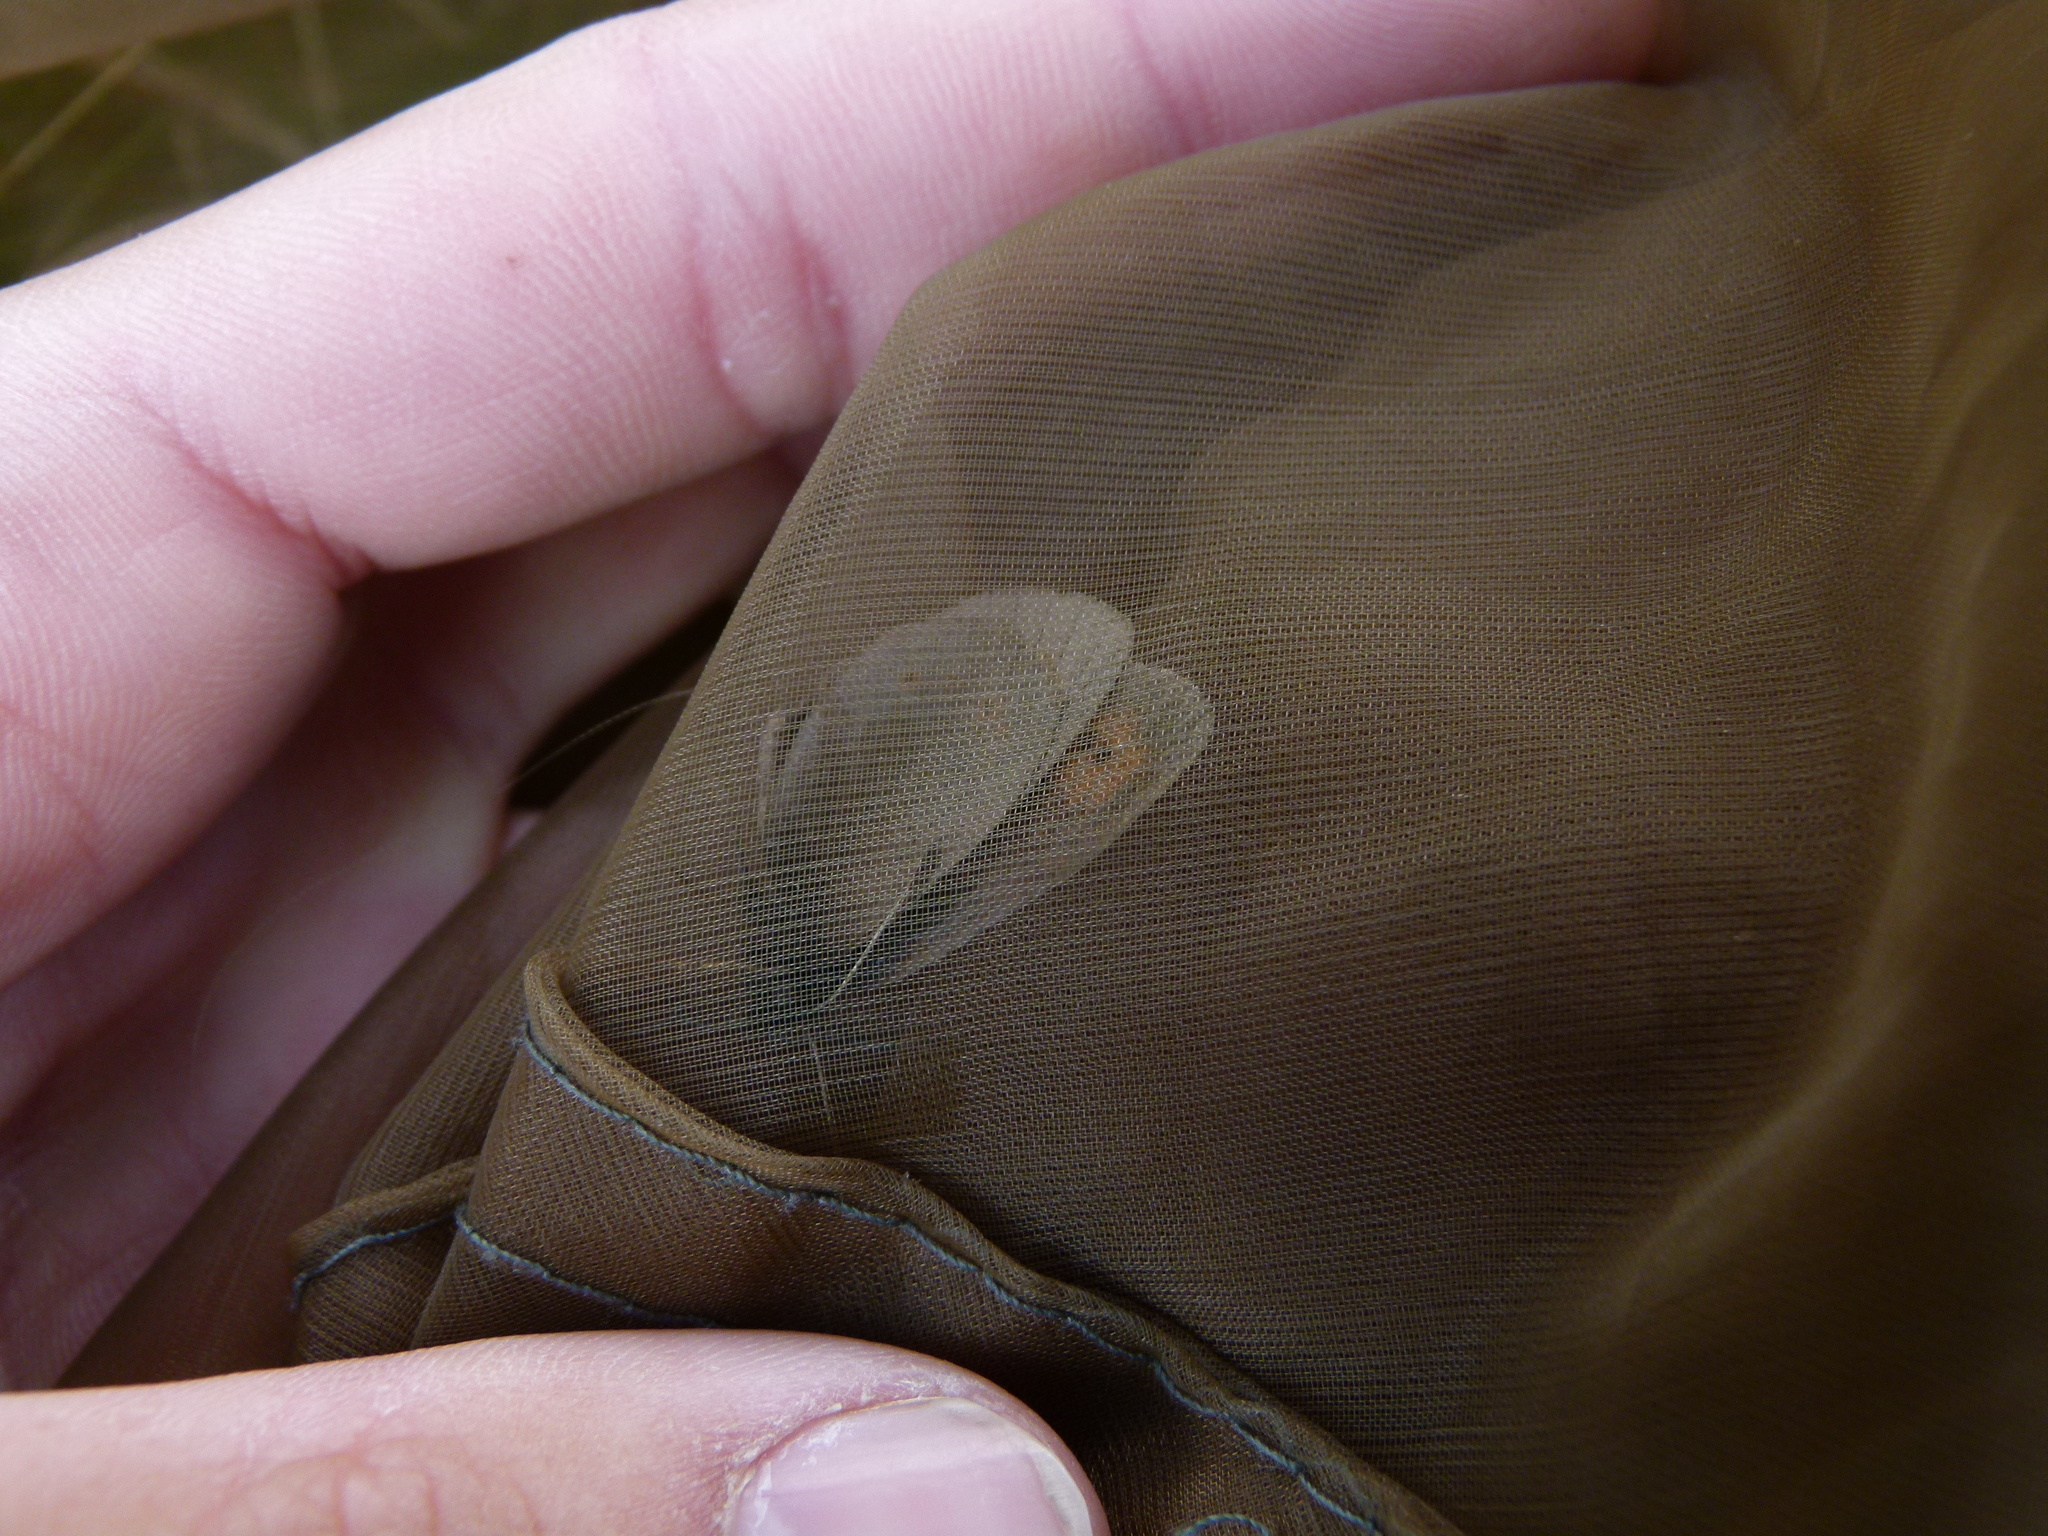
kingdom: Animalia
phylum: Arthropoda
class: Insecta
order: Lepidoptera
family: Nymphalidae
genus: Erebia
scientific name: Erebia epiphron
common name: Mountain ringlet
